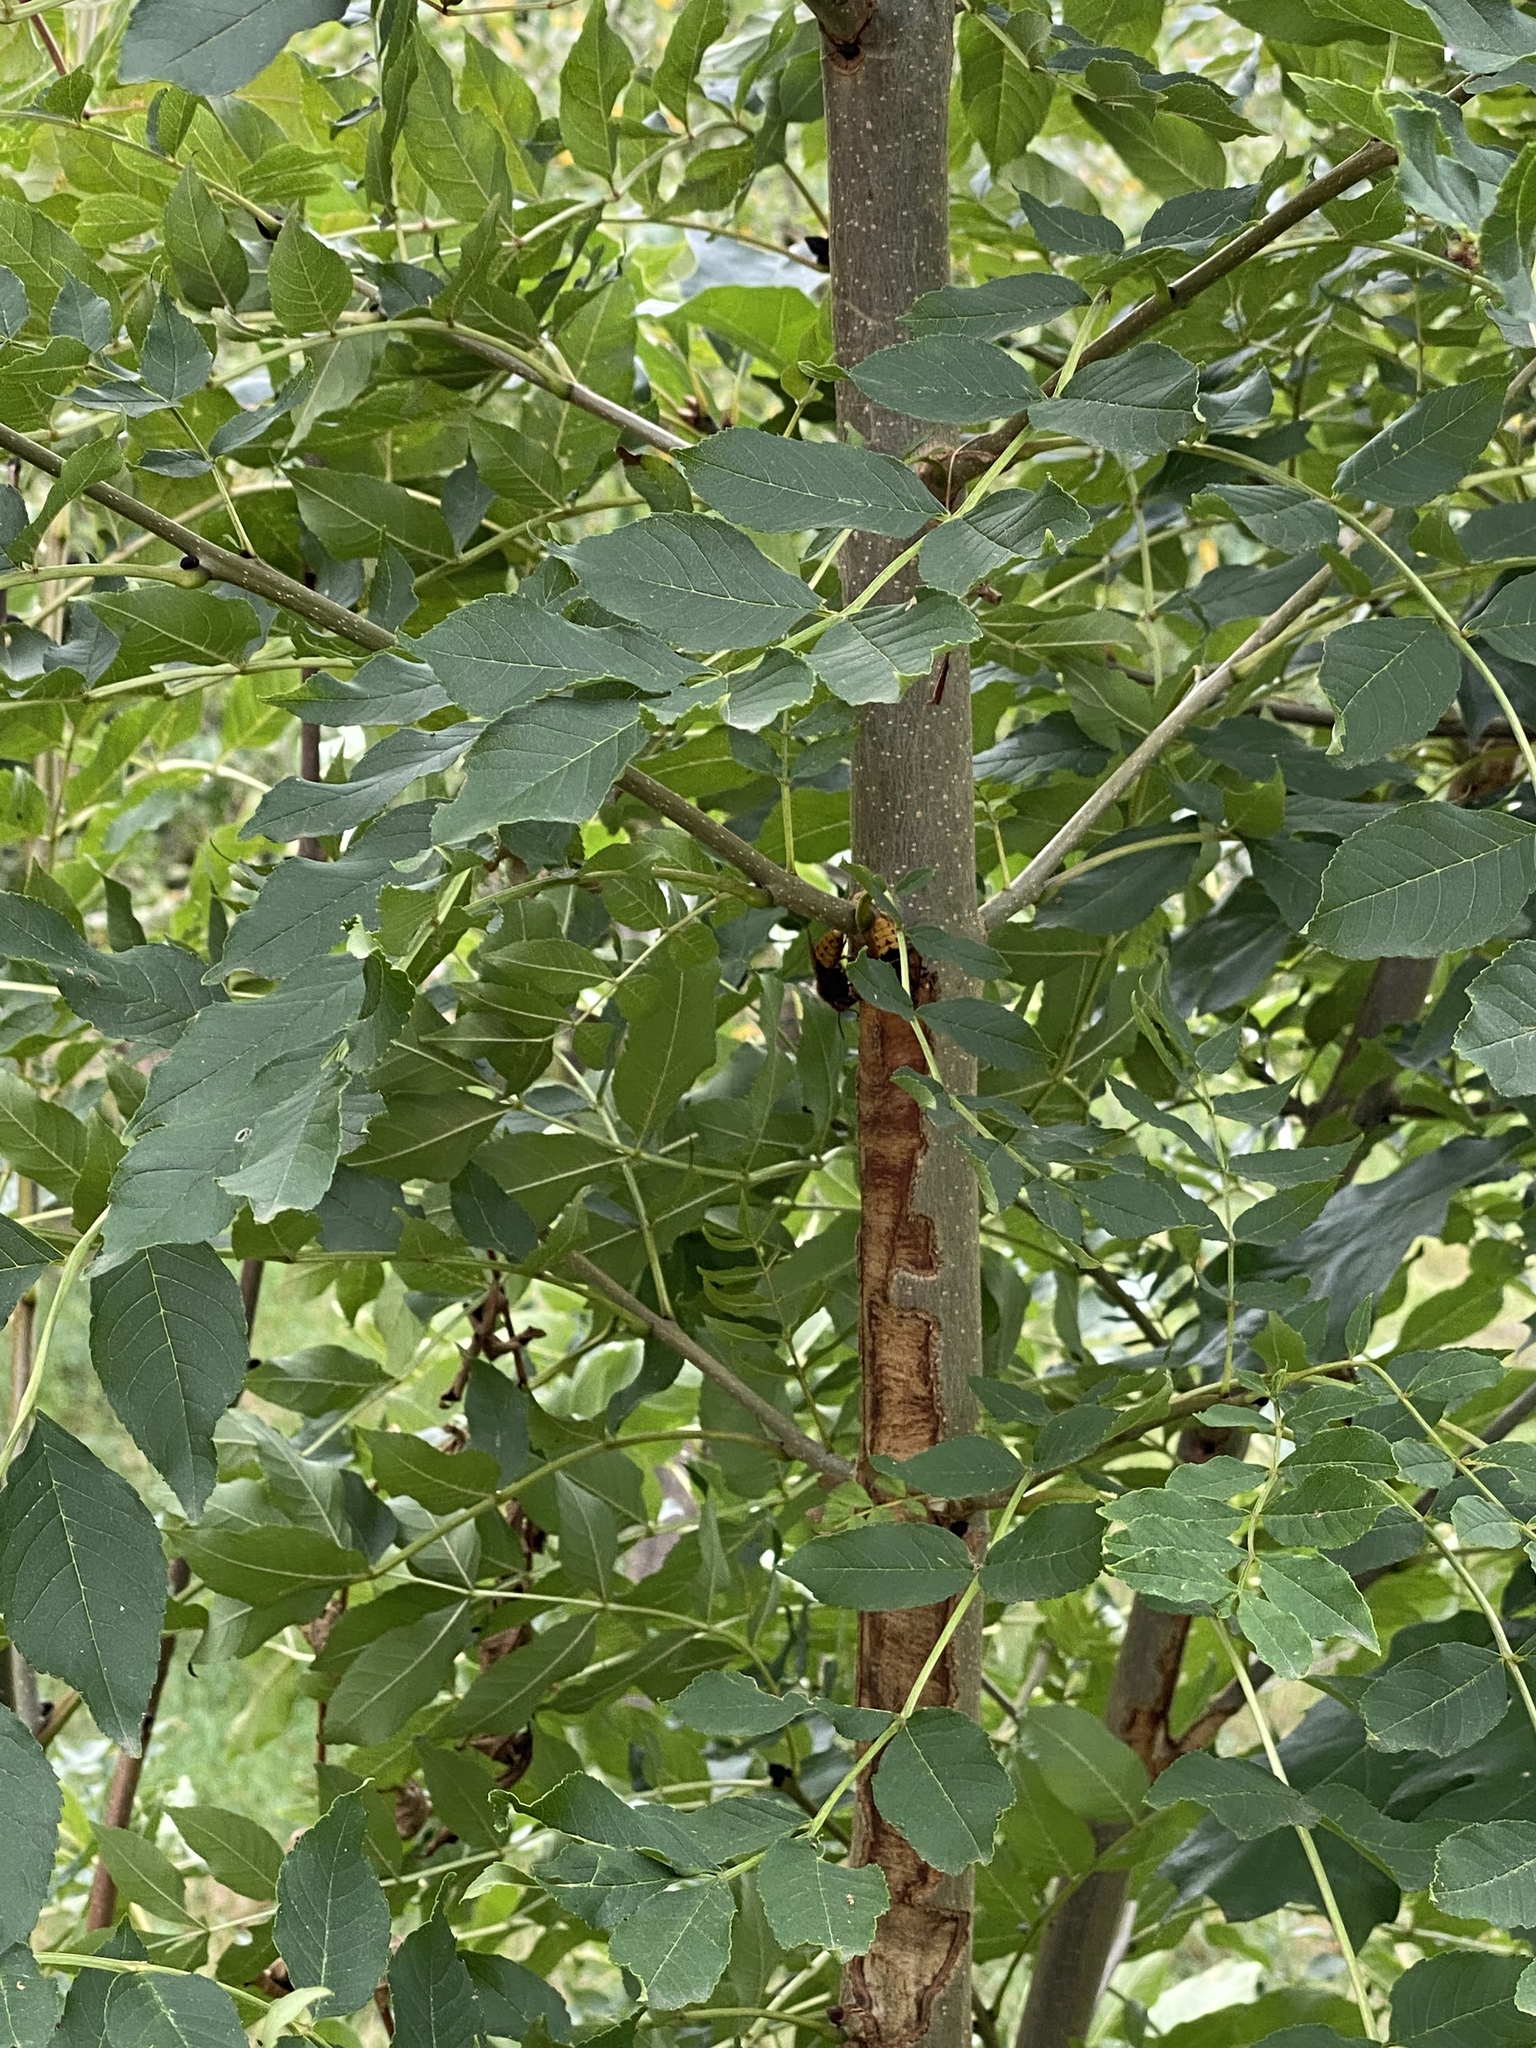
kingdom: Animalia
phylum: Arthropoda
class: Insecta
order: Hymenoptera
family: Vespidae
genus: Vespa
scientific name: Vespa crabro
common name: Hornet
